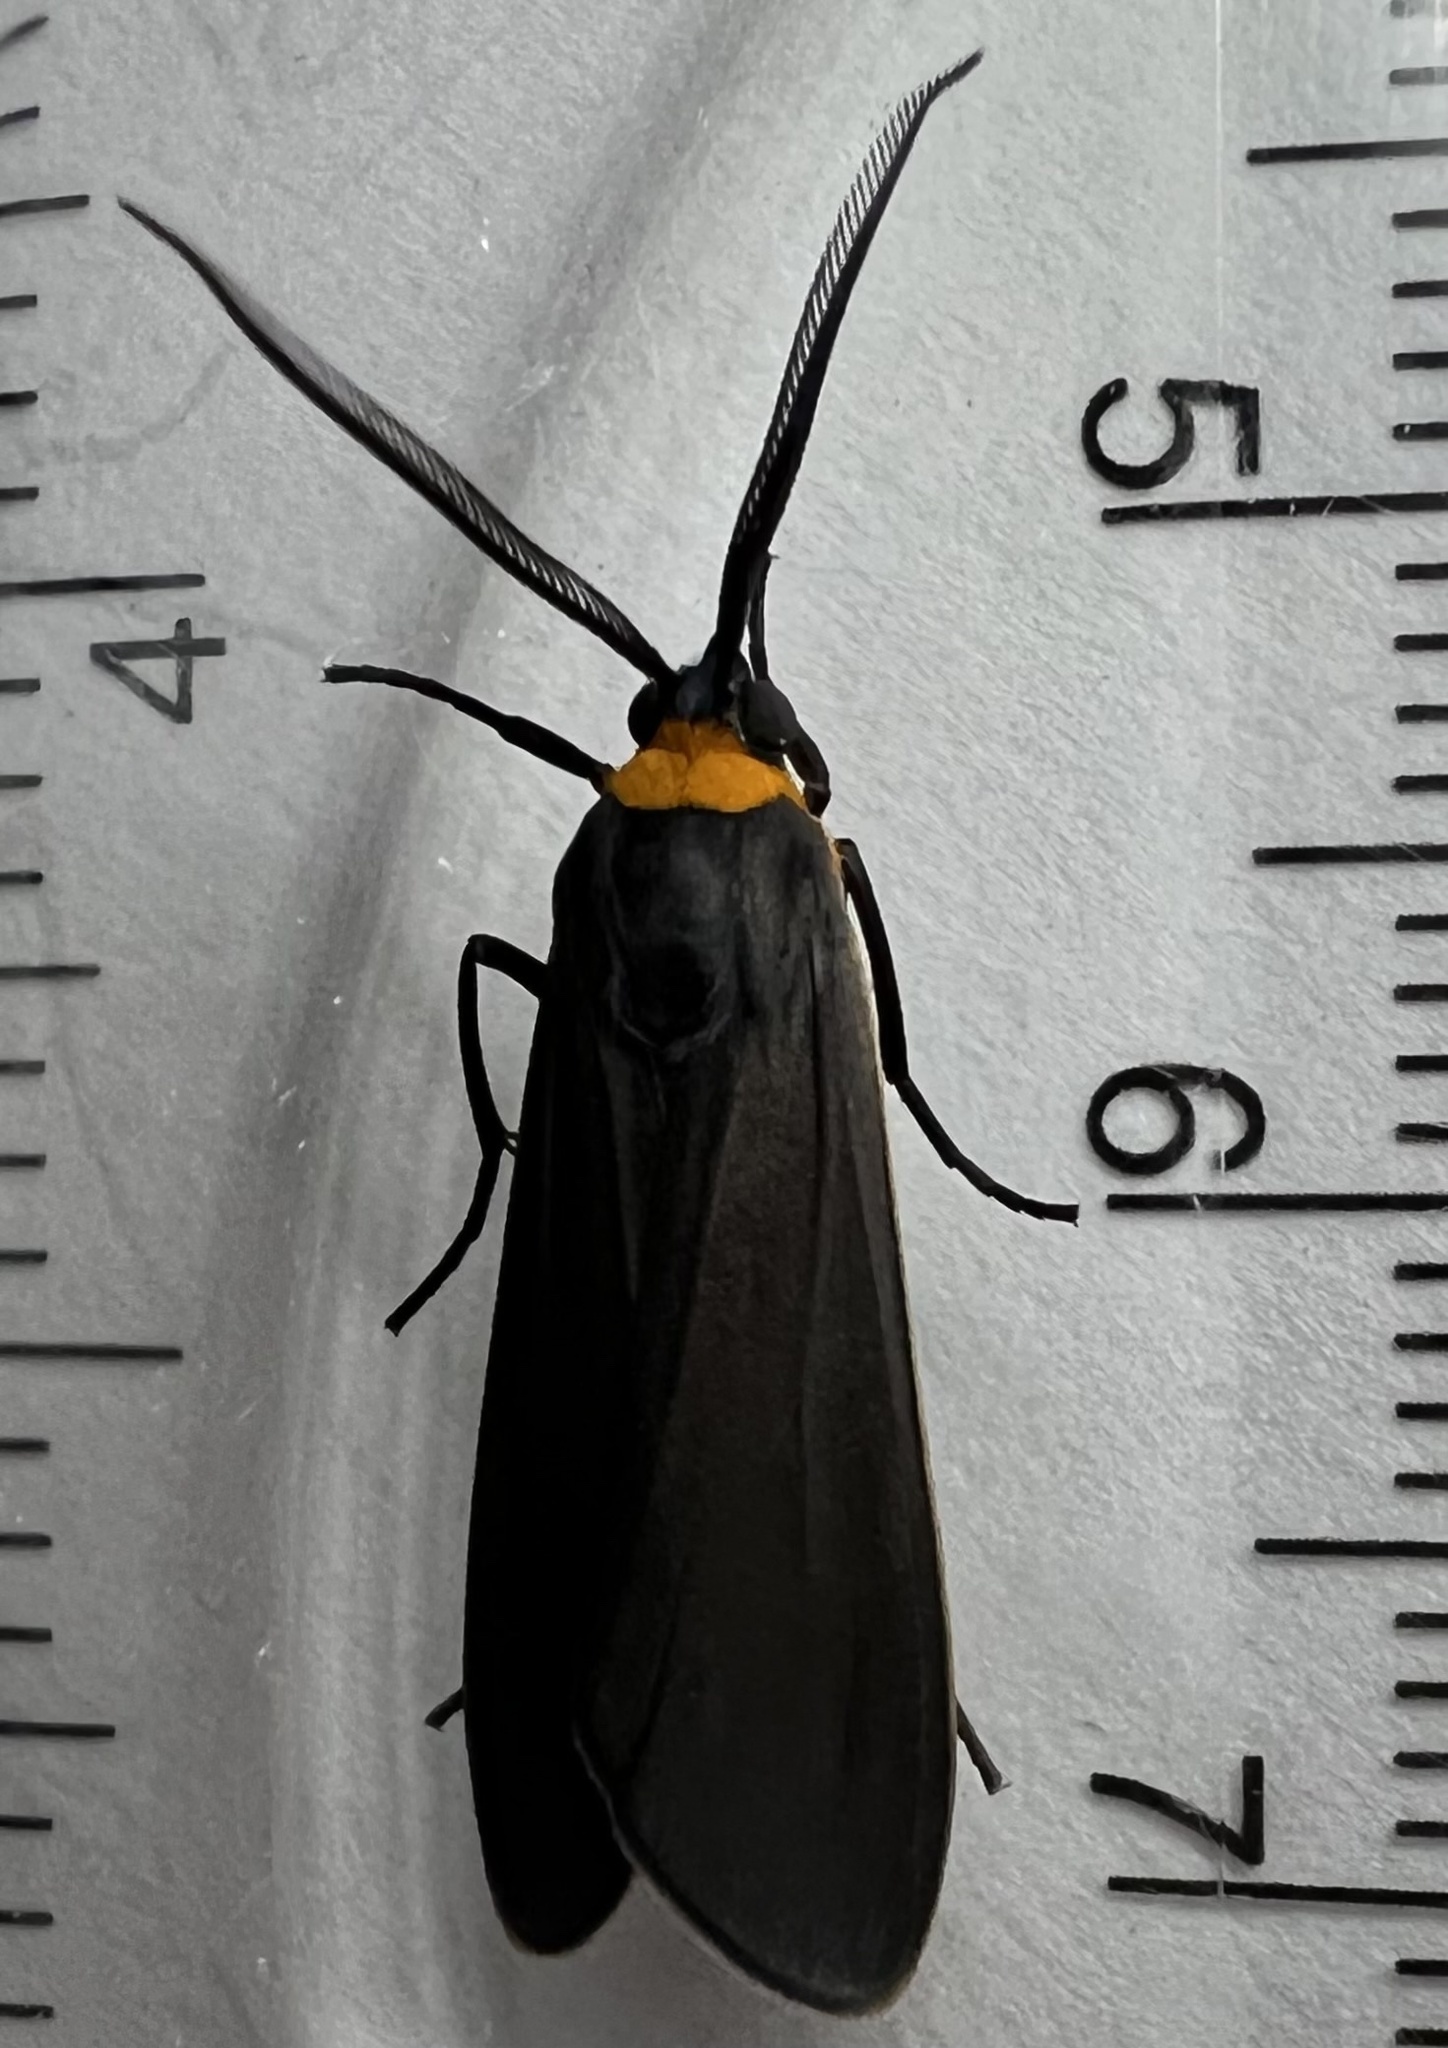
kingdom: Animalia
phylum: Arthropoda
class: Insecta
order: Lepidoptera
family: Erebidae
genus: Cisseps
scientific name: Cisseps fulvicollis
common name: Yellow-collared scape moth
